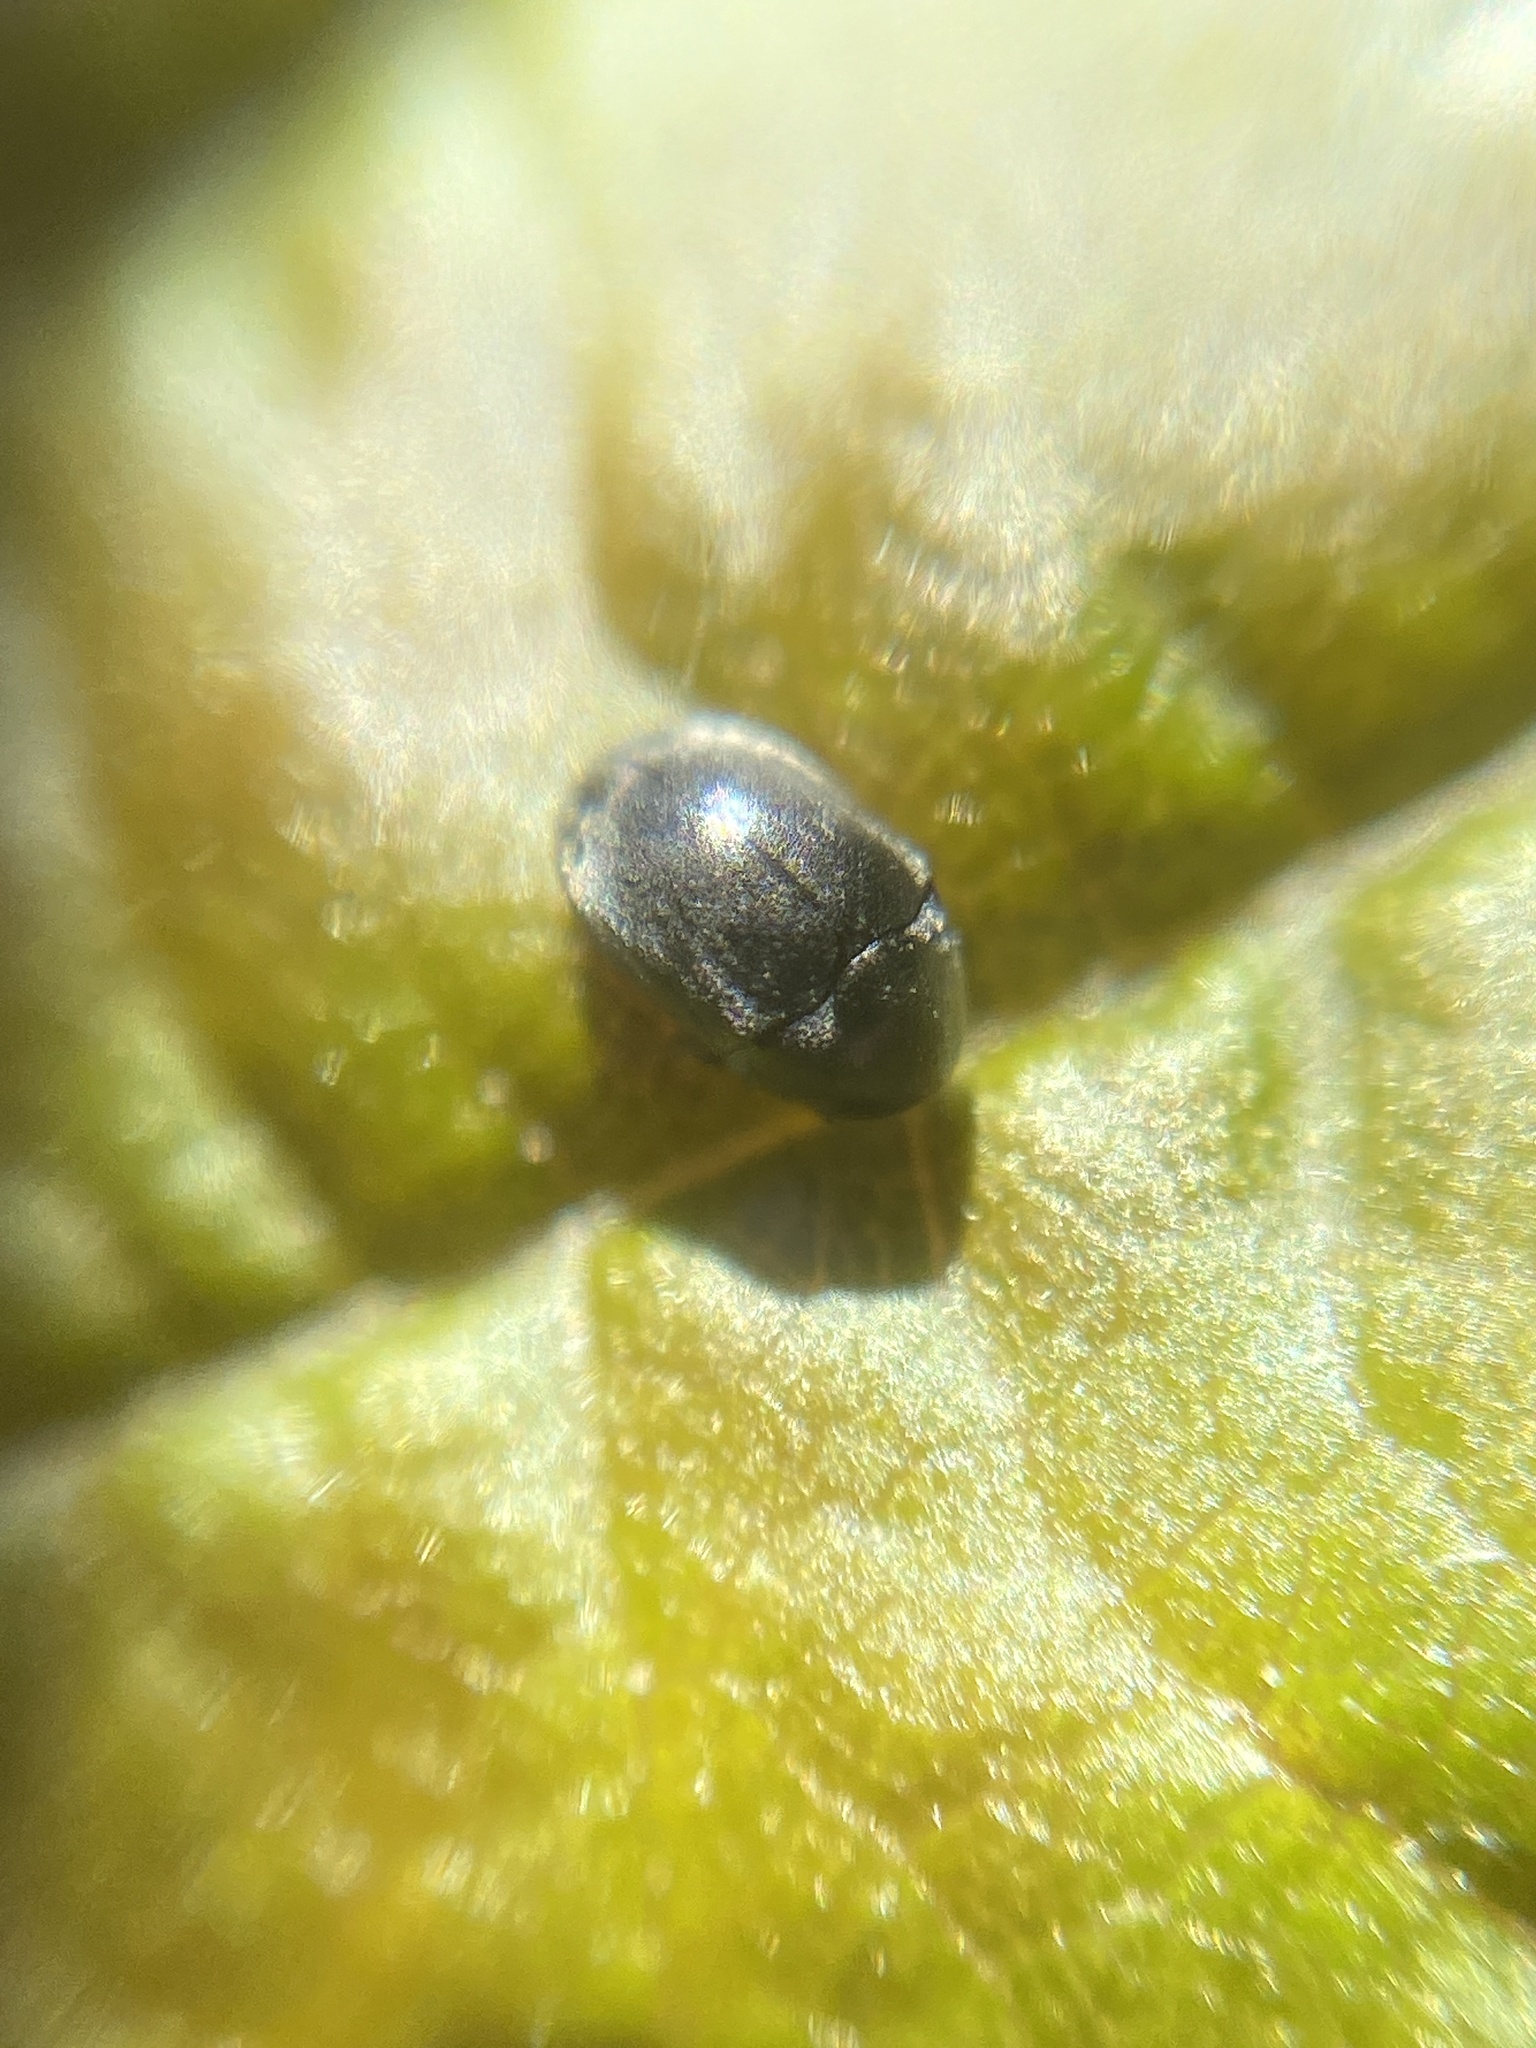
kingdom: Animalia
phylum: Arthropoda
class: Insecta
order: Coleoptera
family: Anobiidae
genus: Mesocoelopus
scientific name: Mesocoelopus niger
